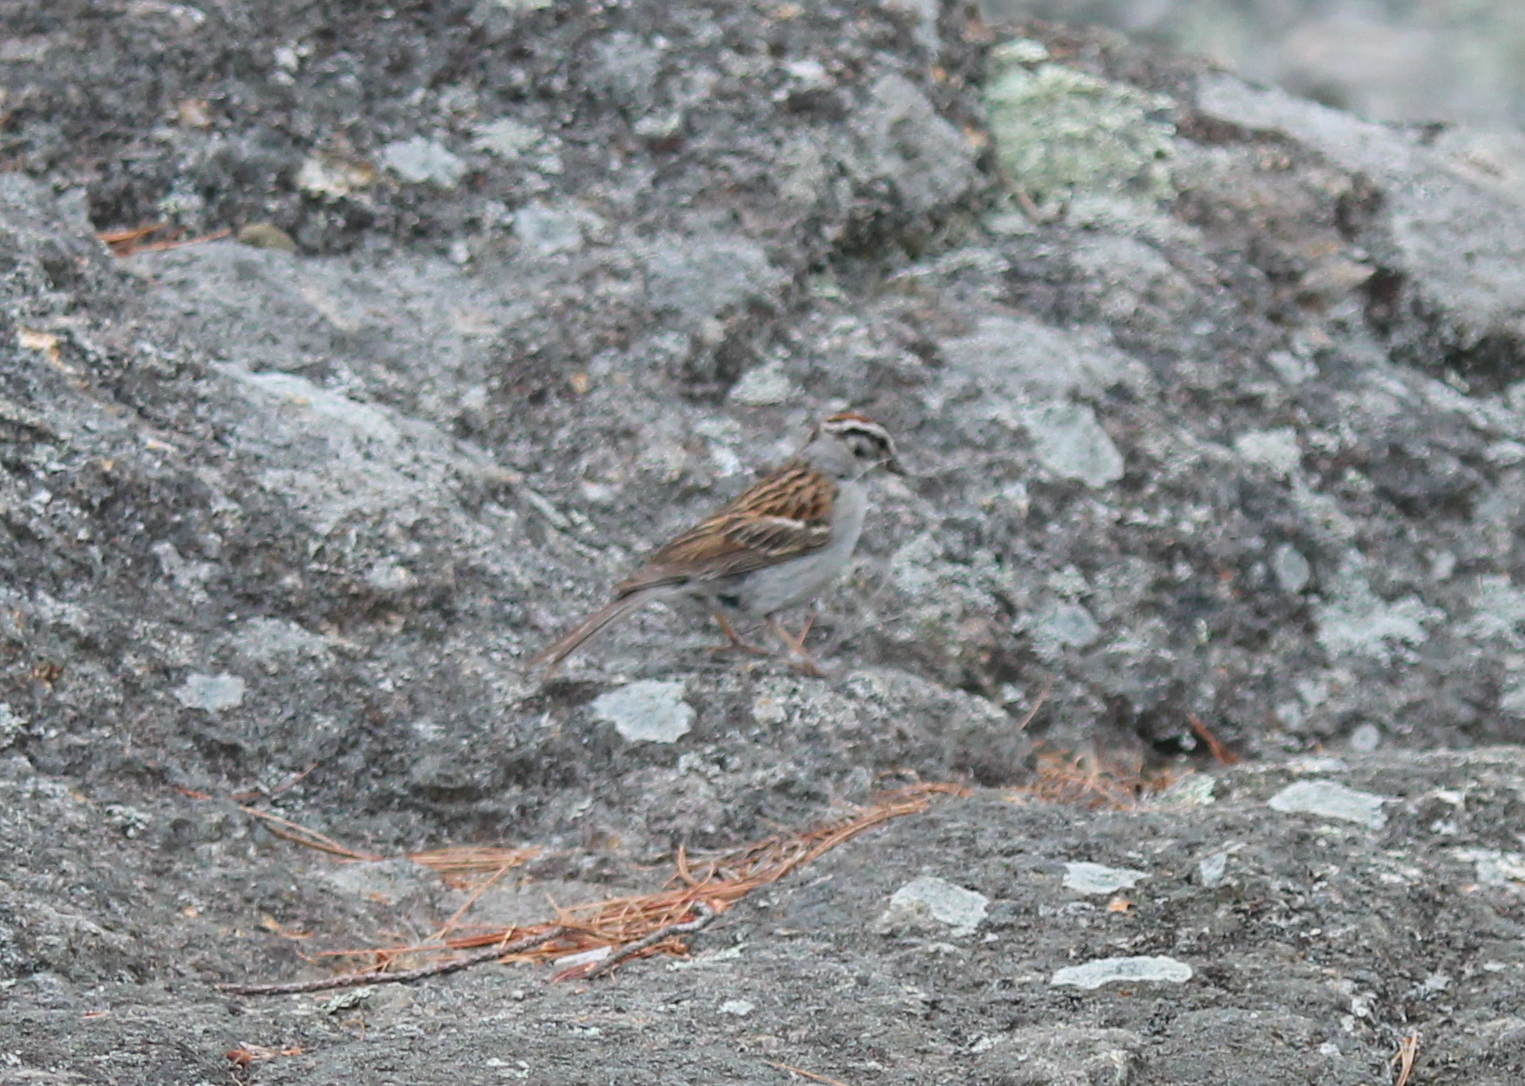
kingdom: Animalia
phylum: Chordata
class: Aves
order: Passeriformes
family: Passerellidae
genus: Spizella
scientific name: Spizella passerina
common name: Chipping sparrow
